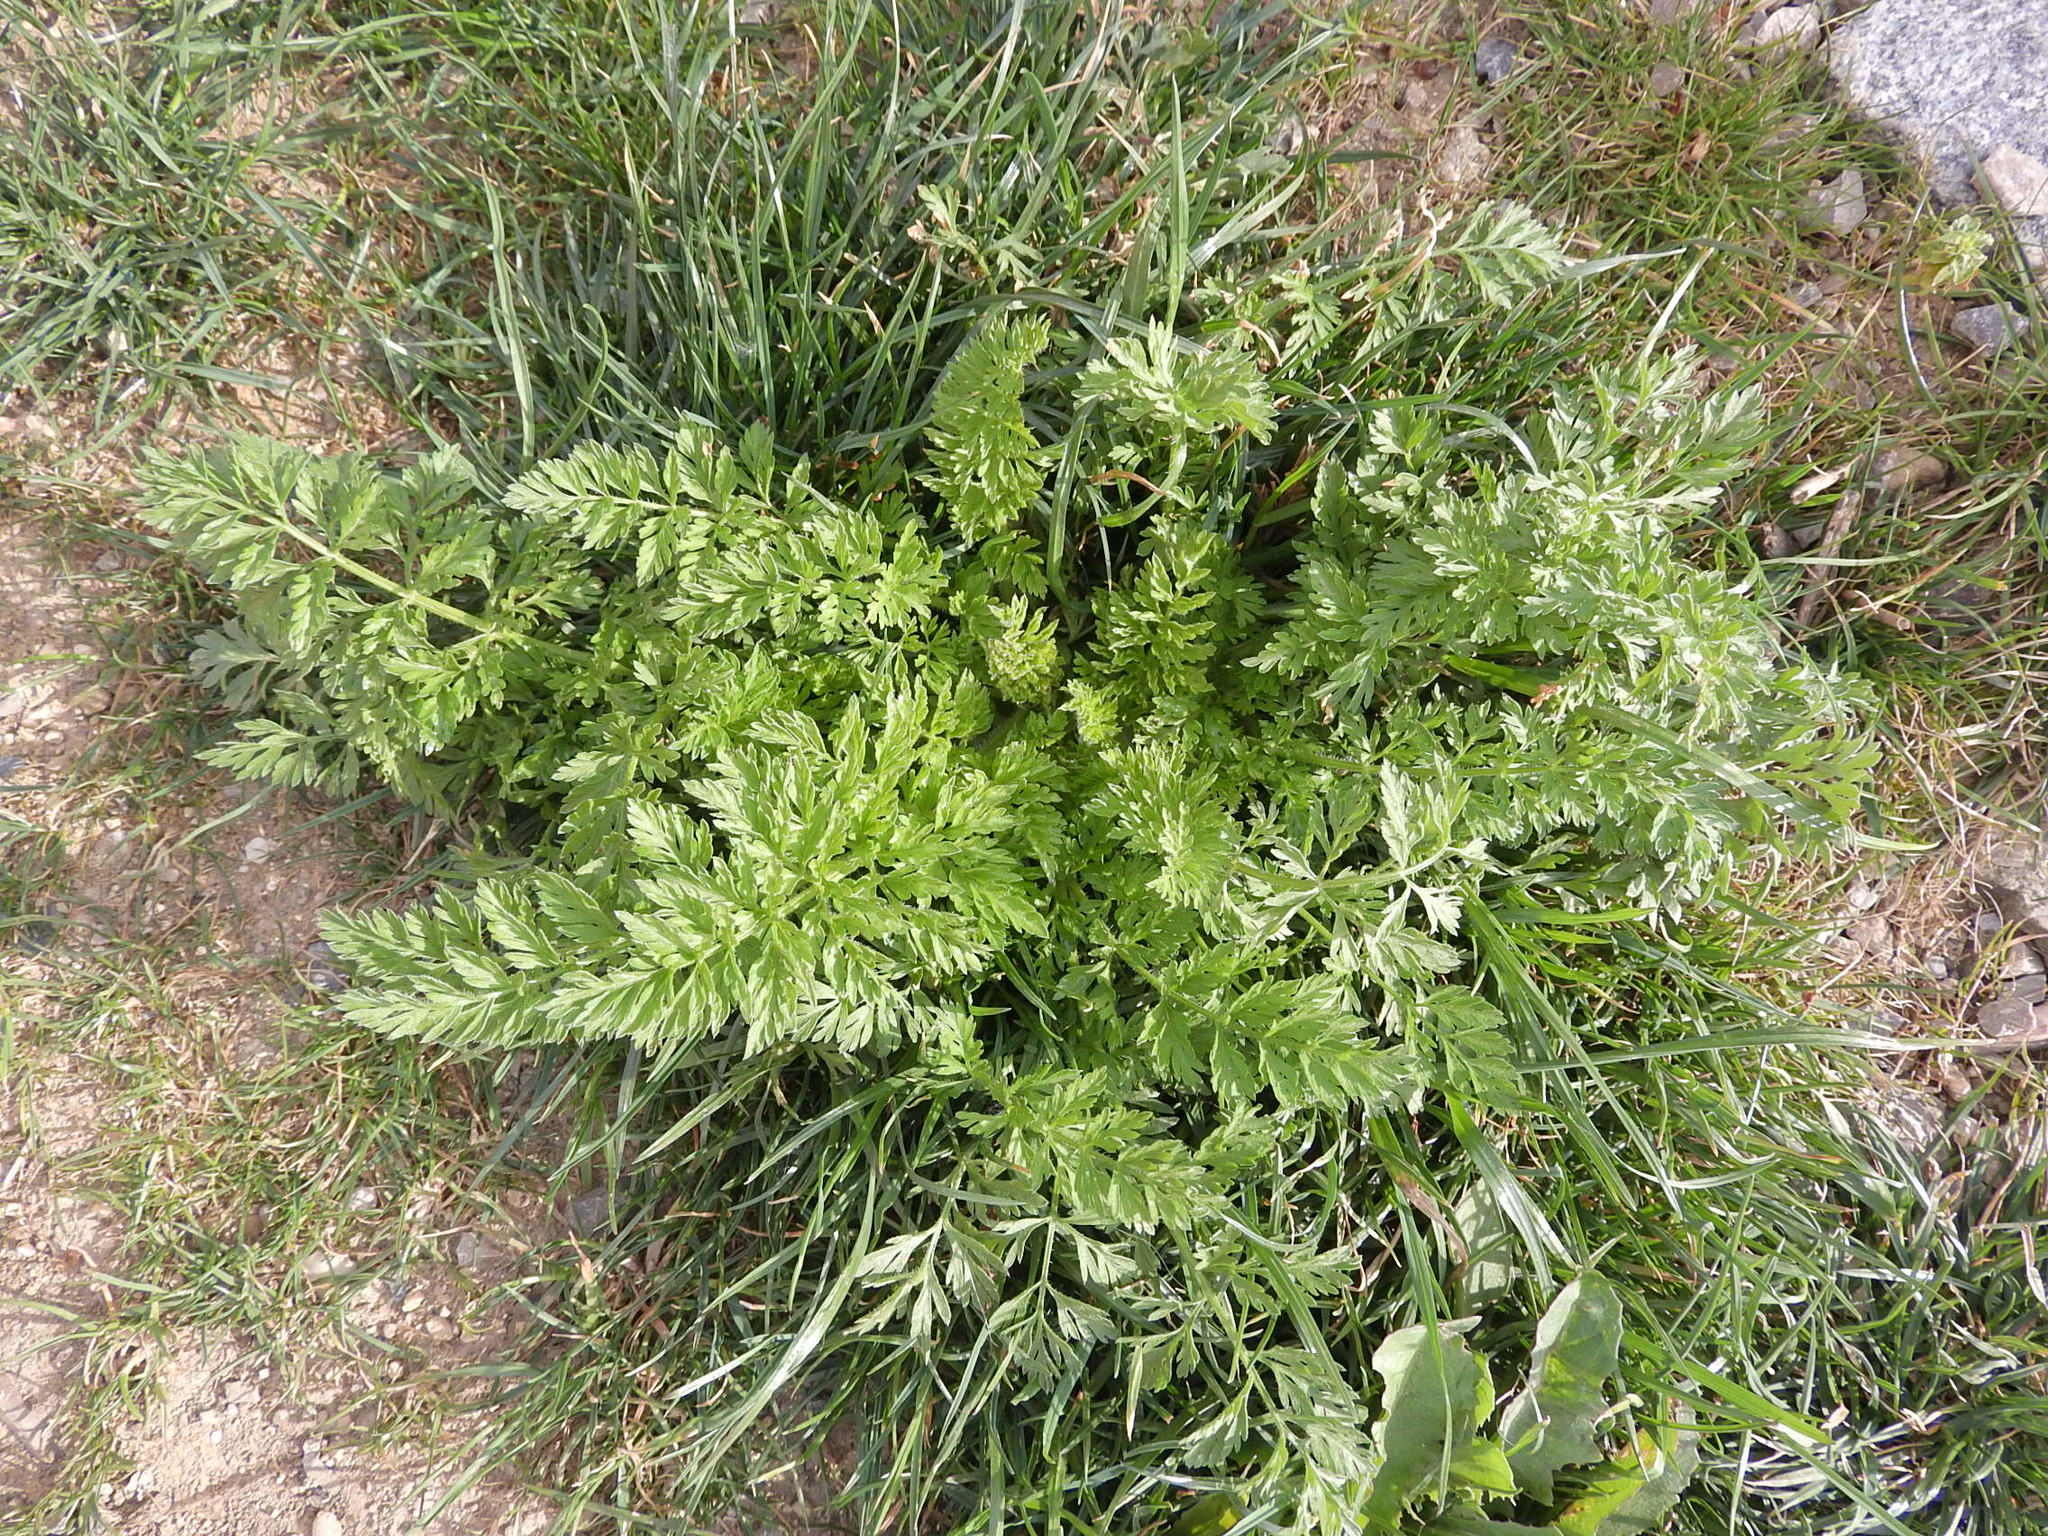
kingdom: Plantae
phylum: Tracheophyta
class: Magnoliopsida
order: Apiales
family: Apiaceae
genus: Daucus
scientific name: Daucus carota
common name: Wild carrot
